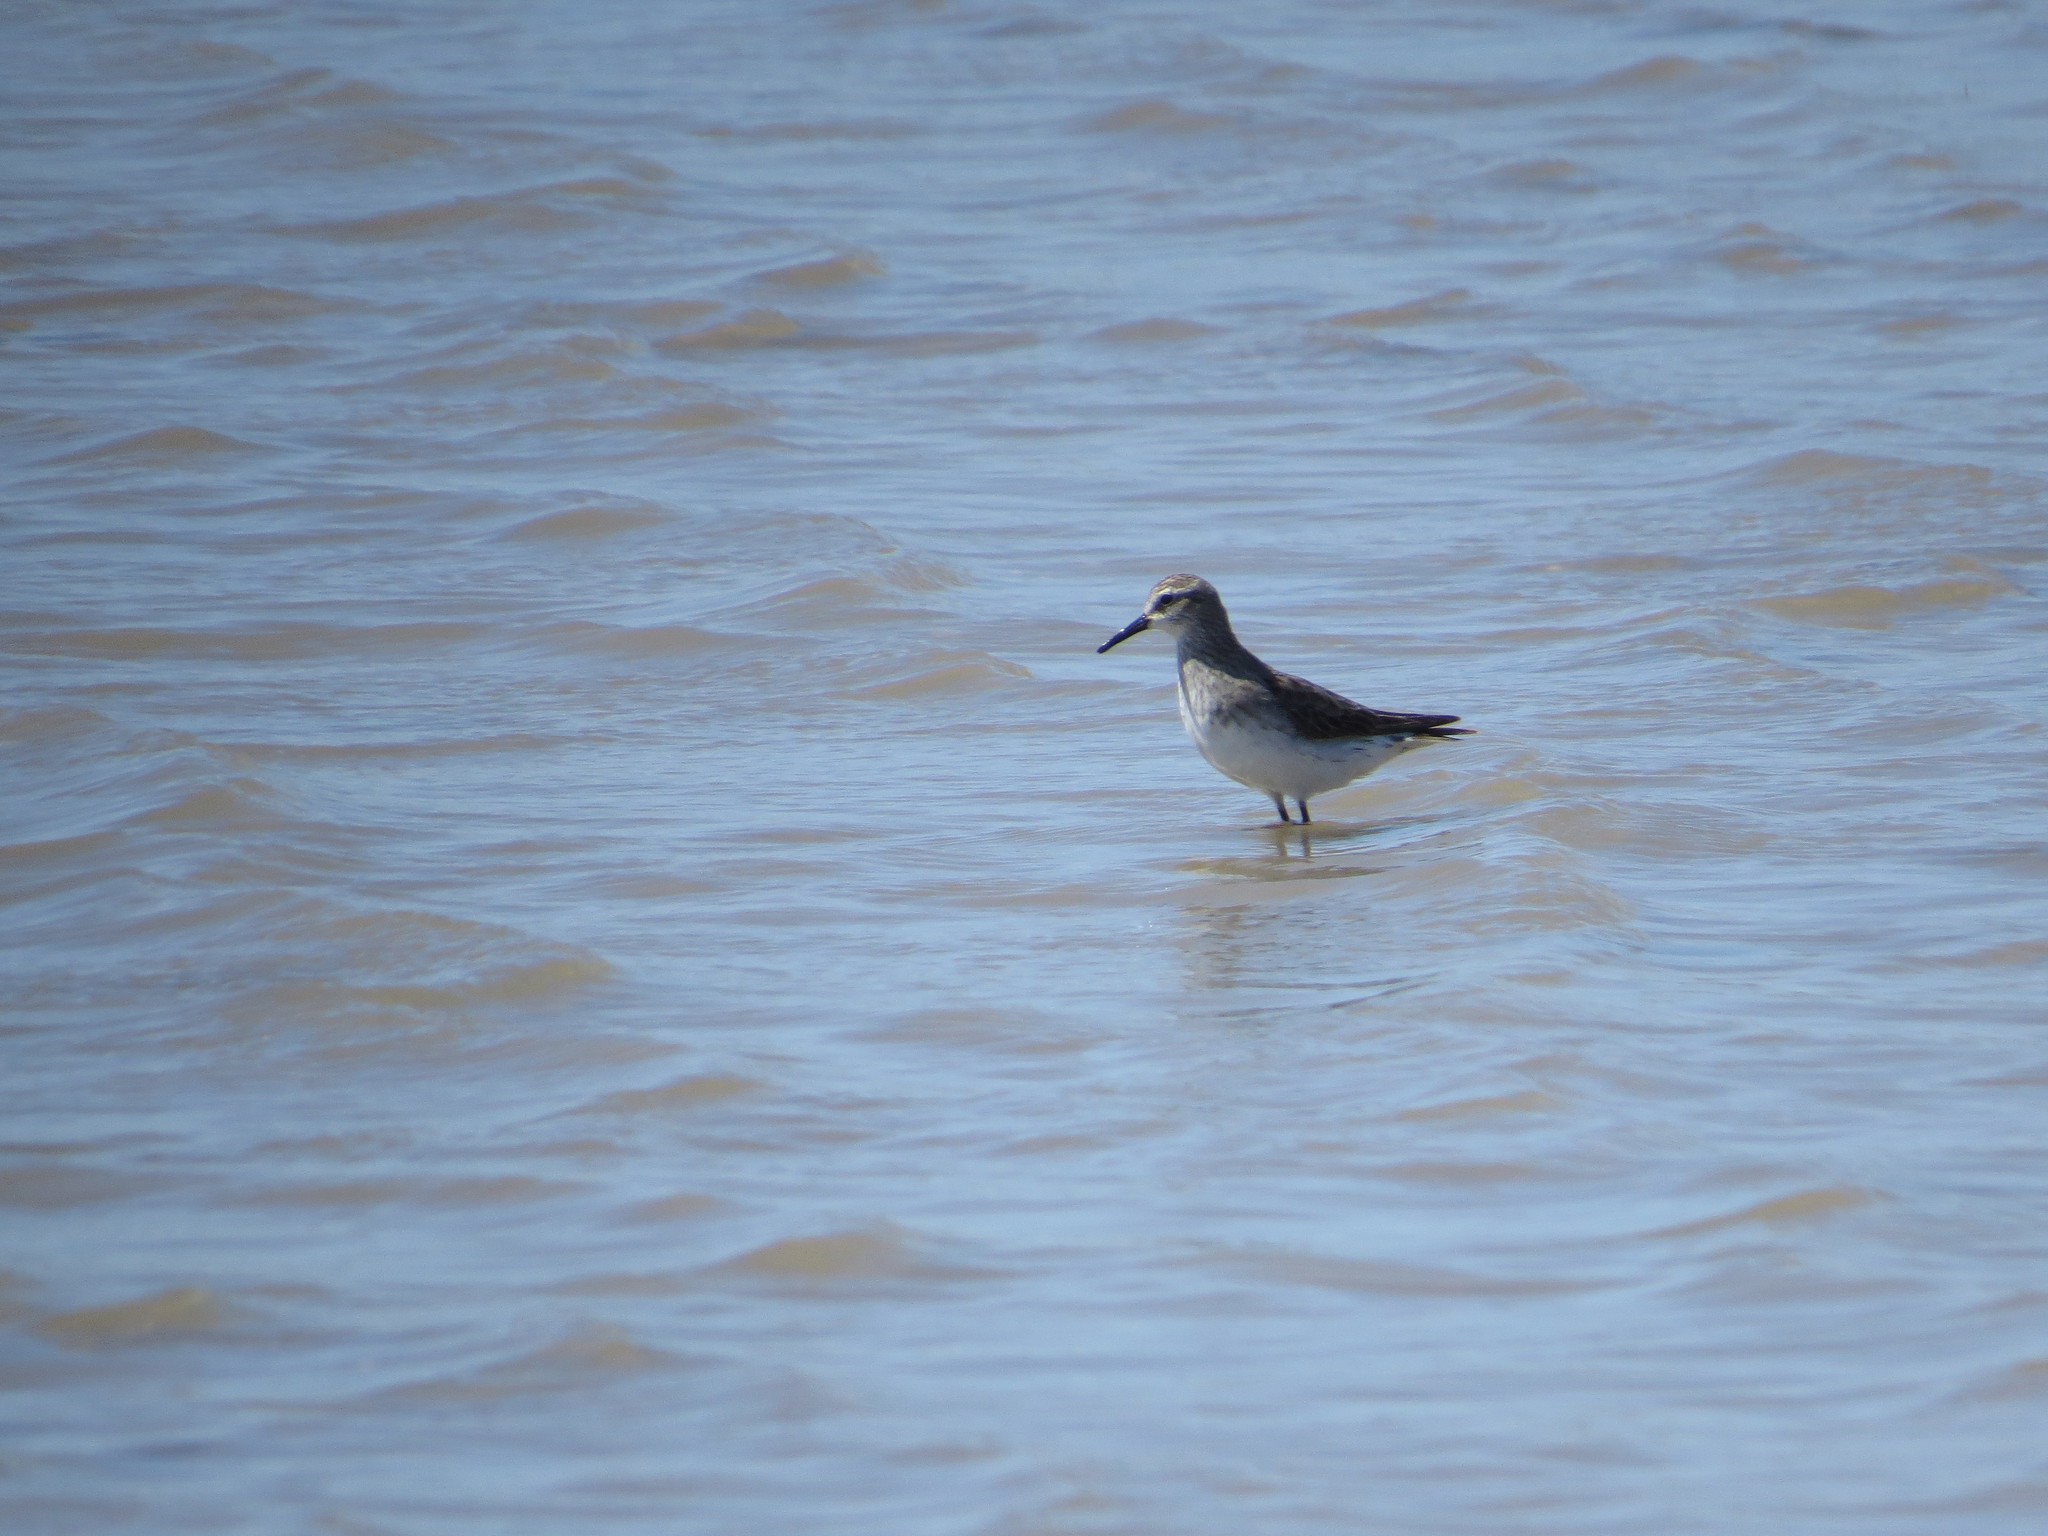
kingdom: Animalia
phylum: Chordata
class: Aves
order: Charadriiformes
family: Scolopacidae
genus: Calidris
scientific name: Calidris fuscicollis
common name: White-rumped sandpiper
